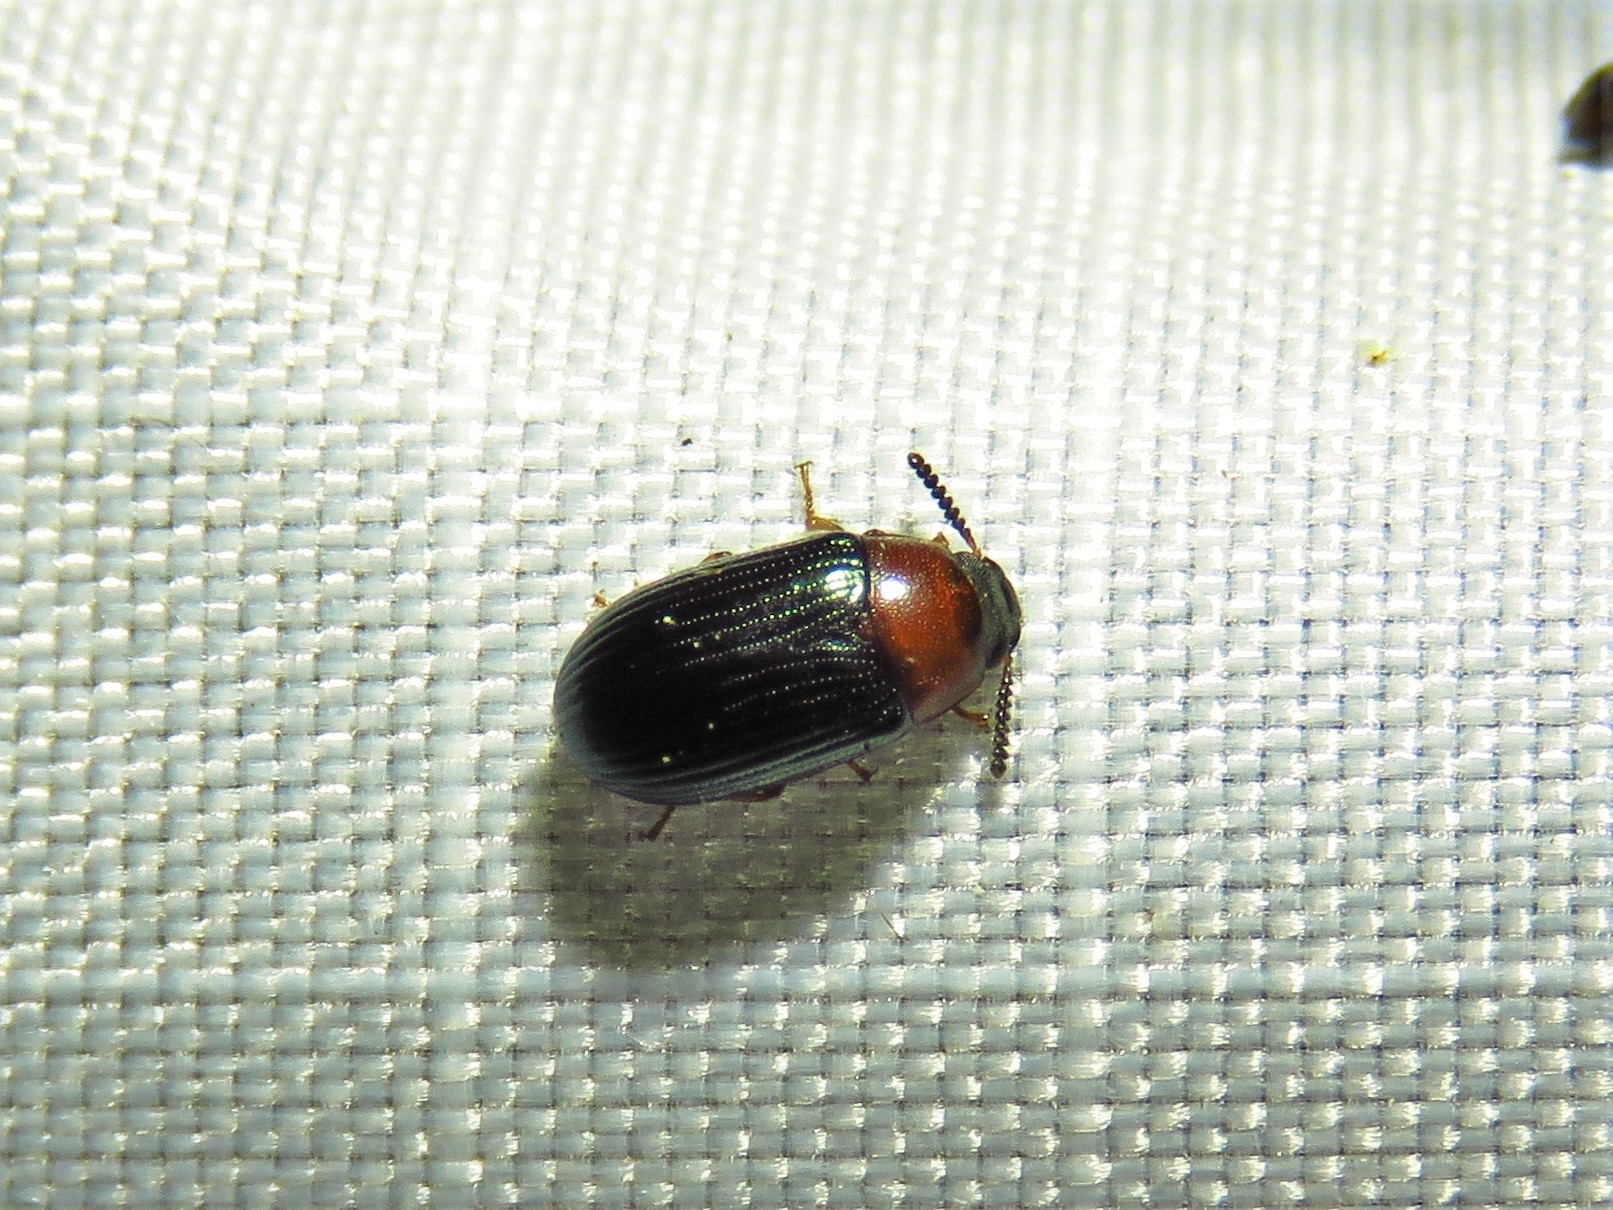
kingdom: Animalia
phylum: Arthropoda
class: Insecta
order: Coleoptera
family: Tenebrionidae
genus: Neomida
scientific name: Neomida bicornis
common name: Two-horned darkling beetle
